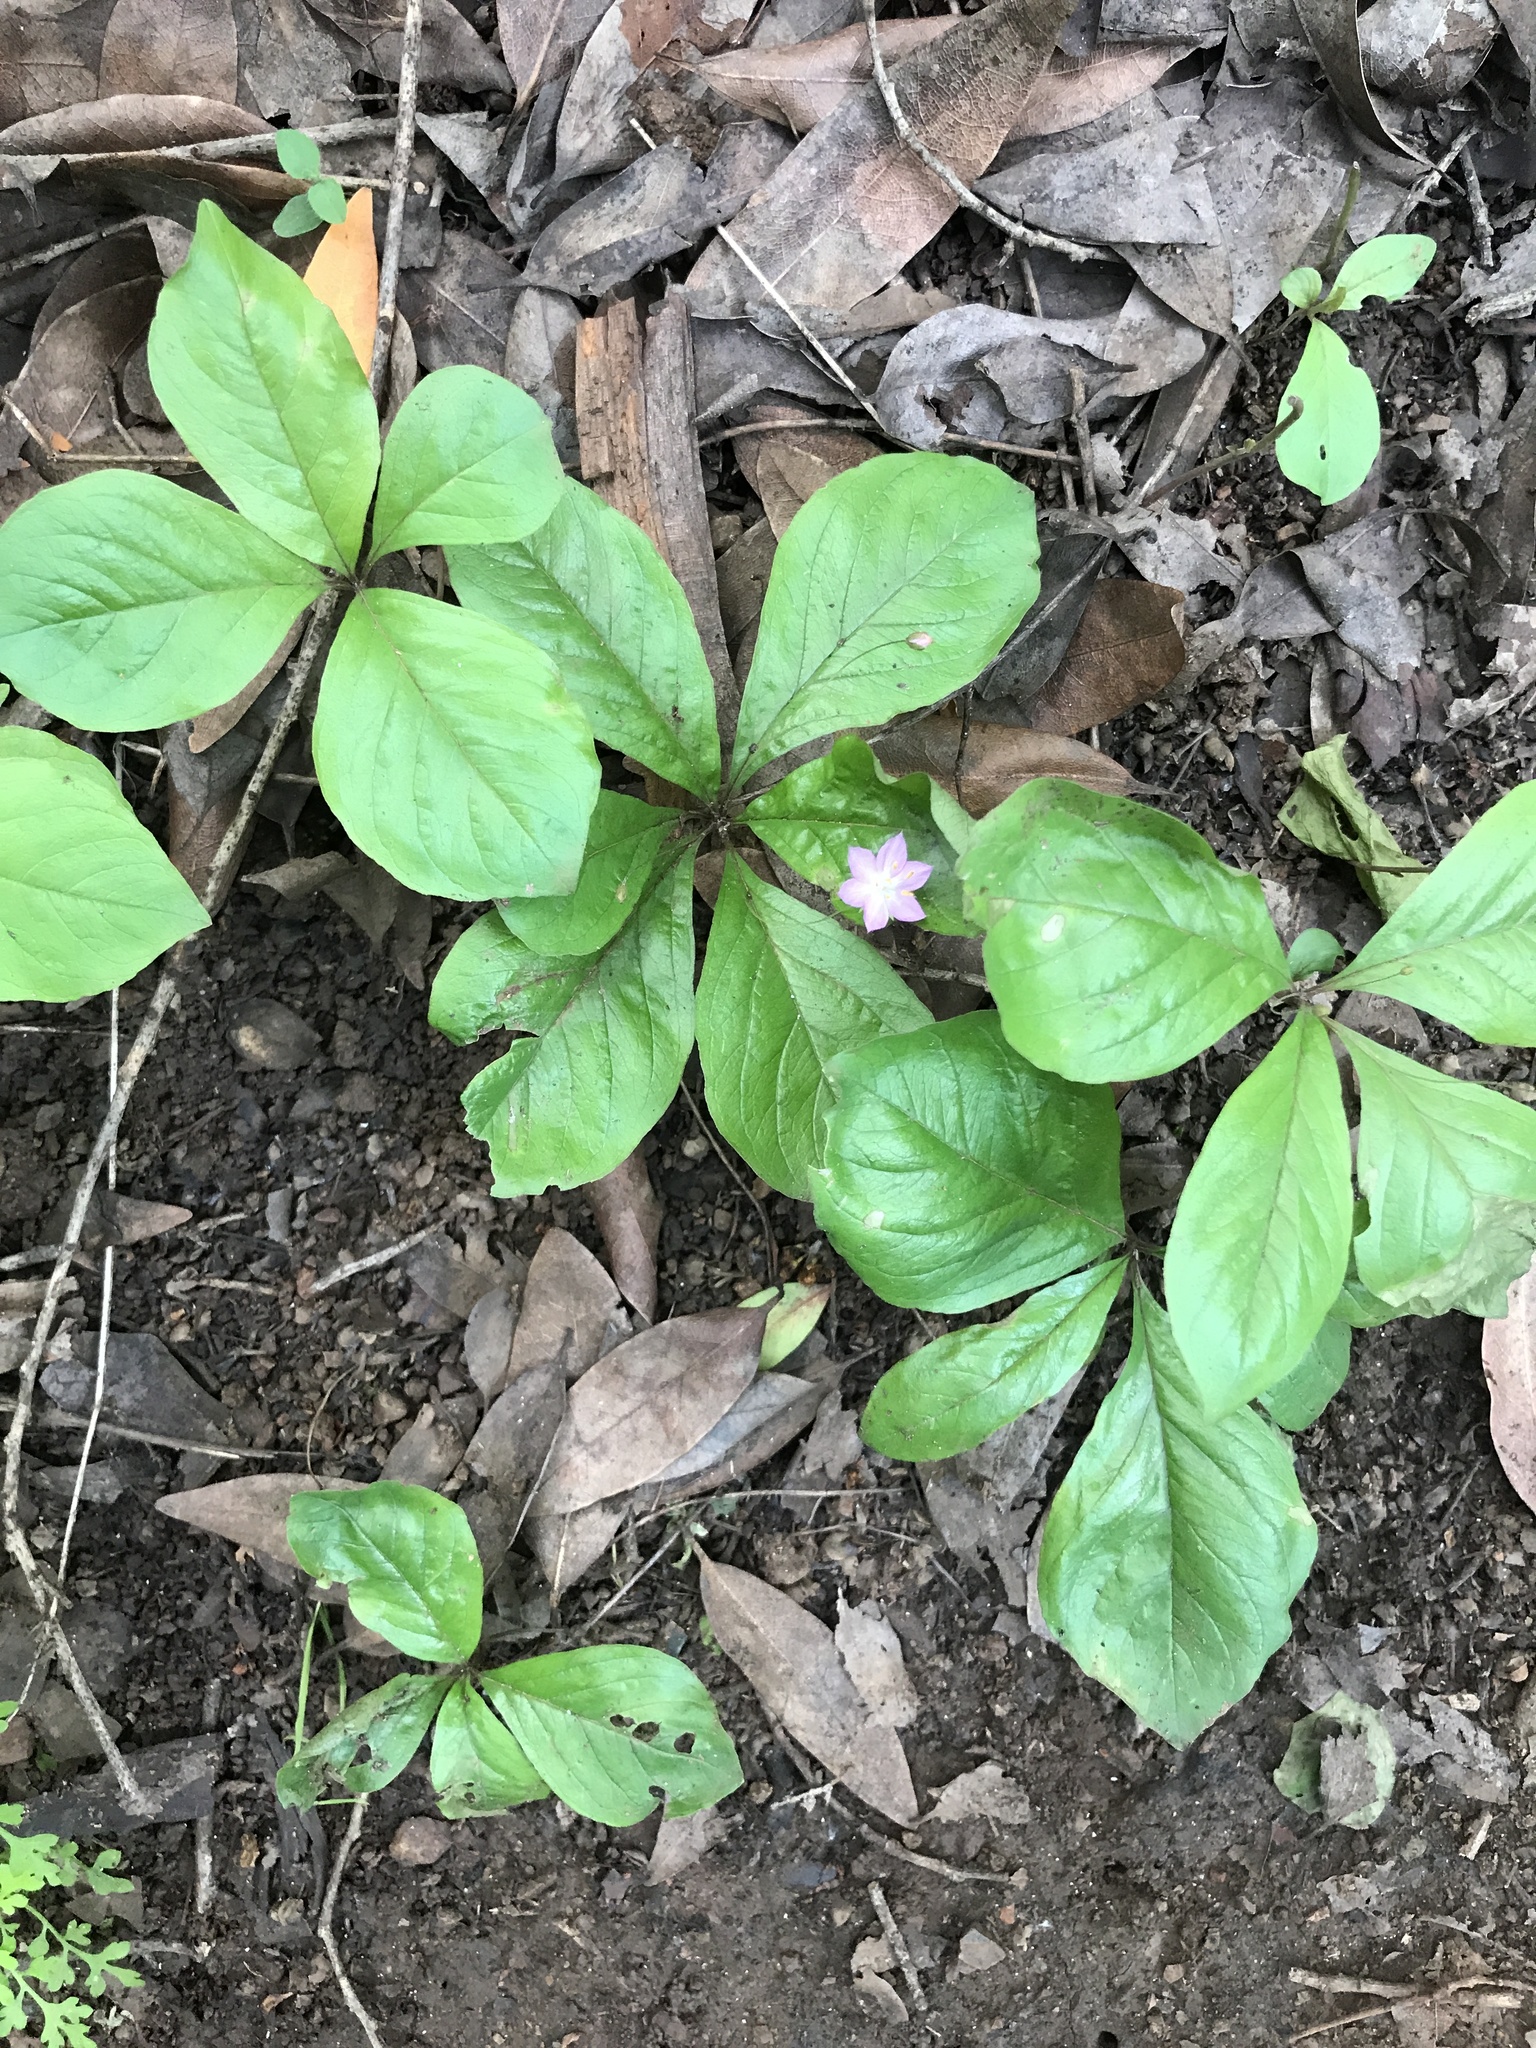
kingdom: Plantae
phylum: Tracheophyta
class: Magnoliopsida
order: Ericales
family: Primulaceae
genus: Lysimachia
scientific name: Lysimachia latifolia
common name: Pacific starflower
